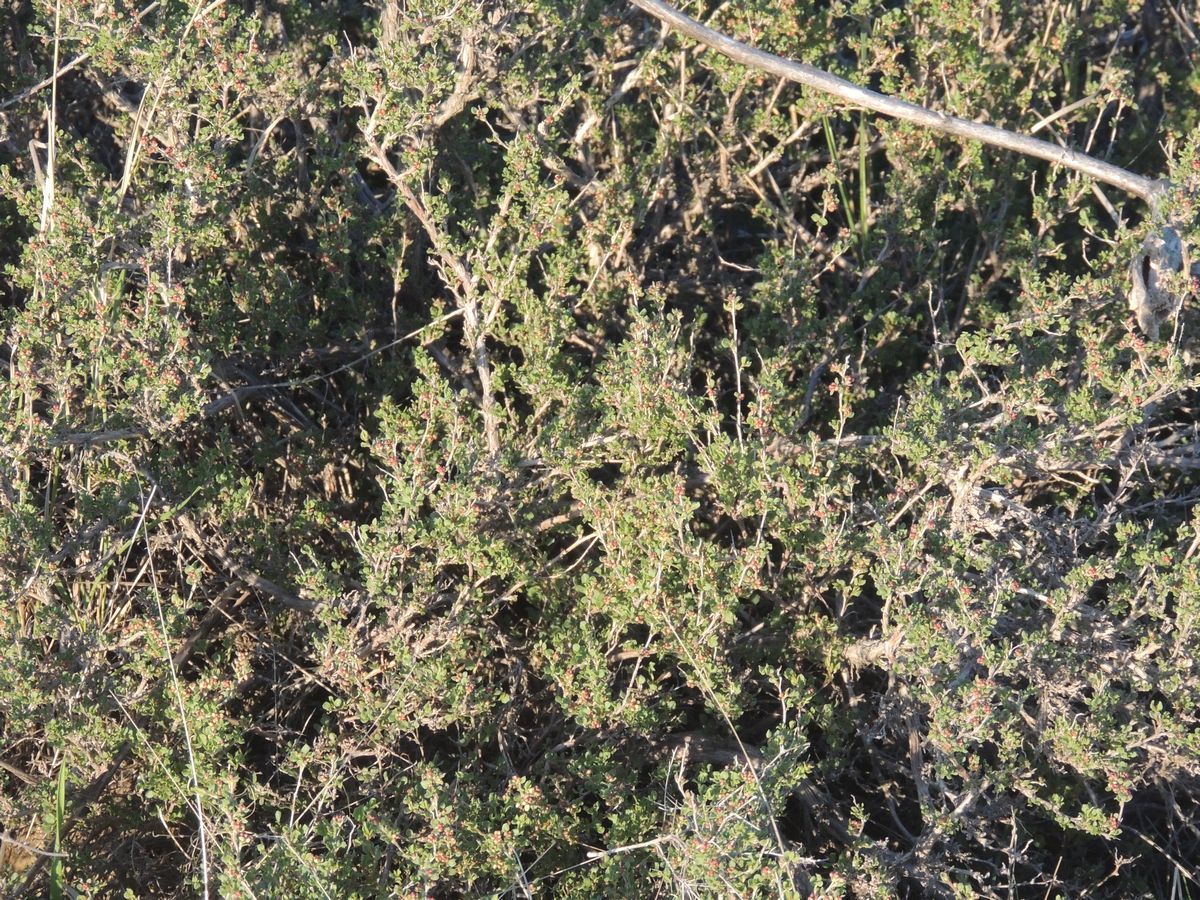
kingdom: Plantae
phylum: Tracheophyta
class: Magnoliopsida
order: Caryophyllales
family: Polygonaceae
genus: Atraphaxis
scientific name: Atraphaxis replicata
